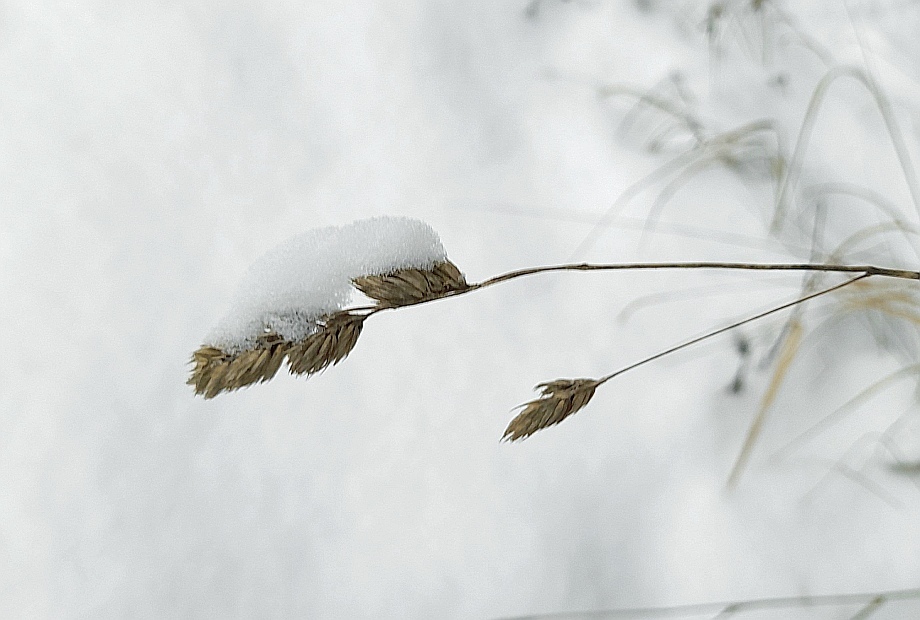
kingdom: Plantae
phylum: Tracheophyta
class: Liliopsida
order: Poales
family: Poaceae
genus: Dactylis
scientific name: Dactylis glomerata
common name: Orchardgrass
